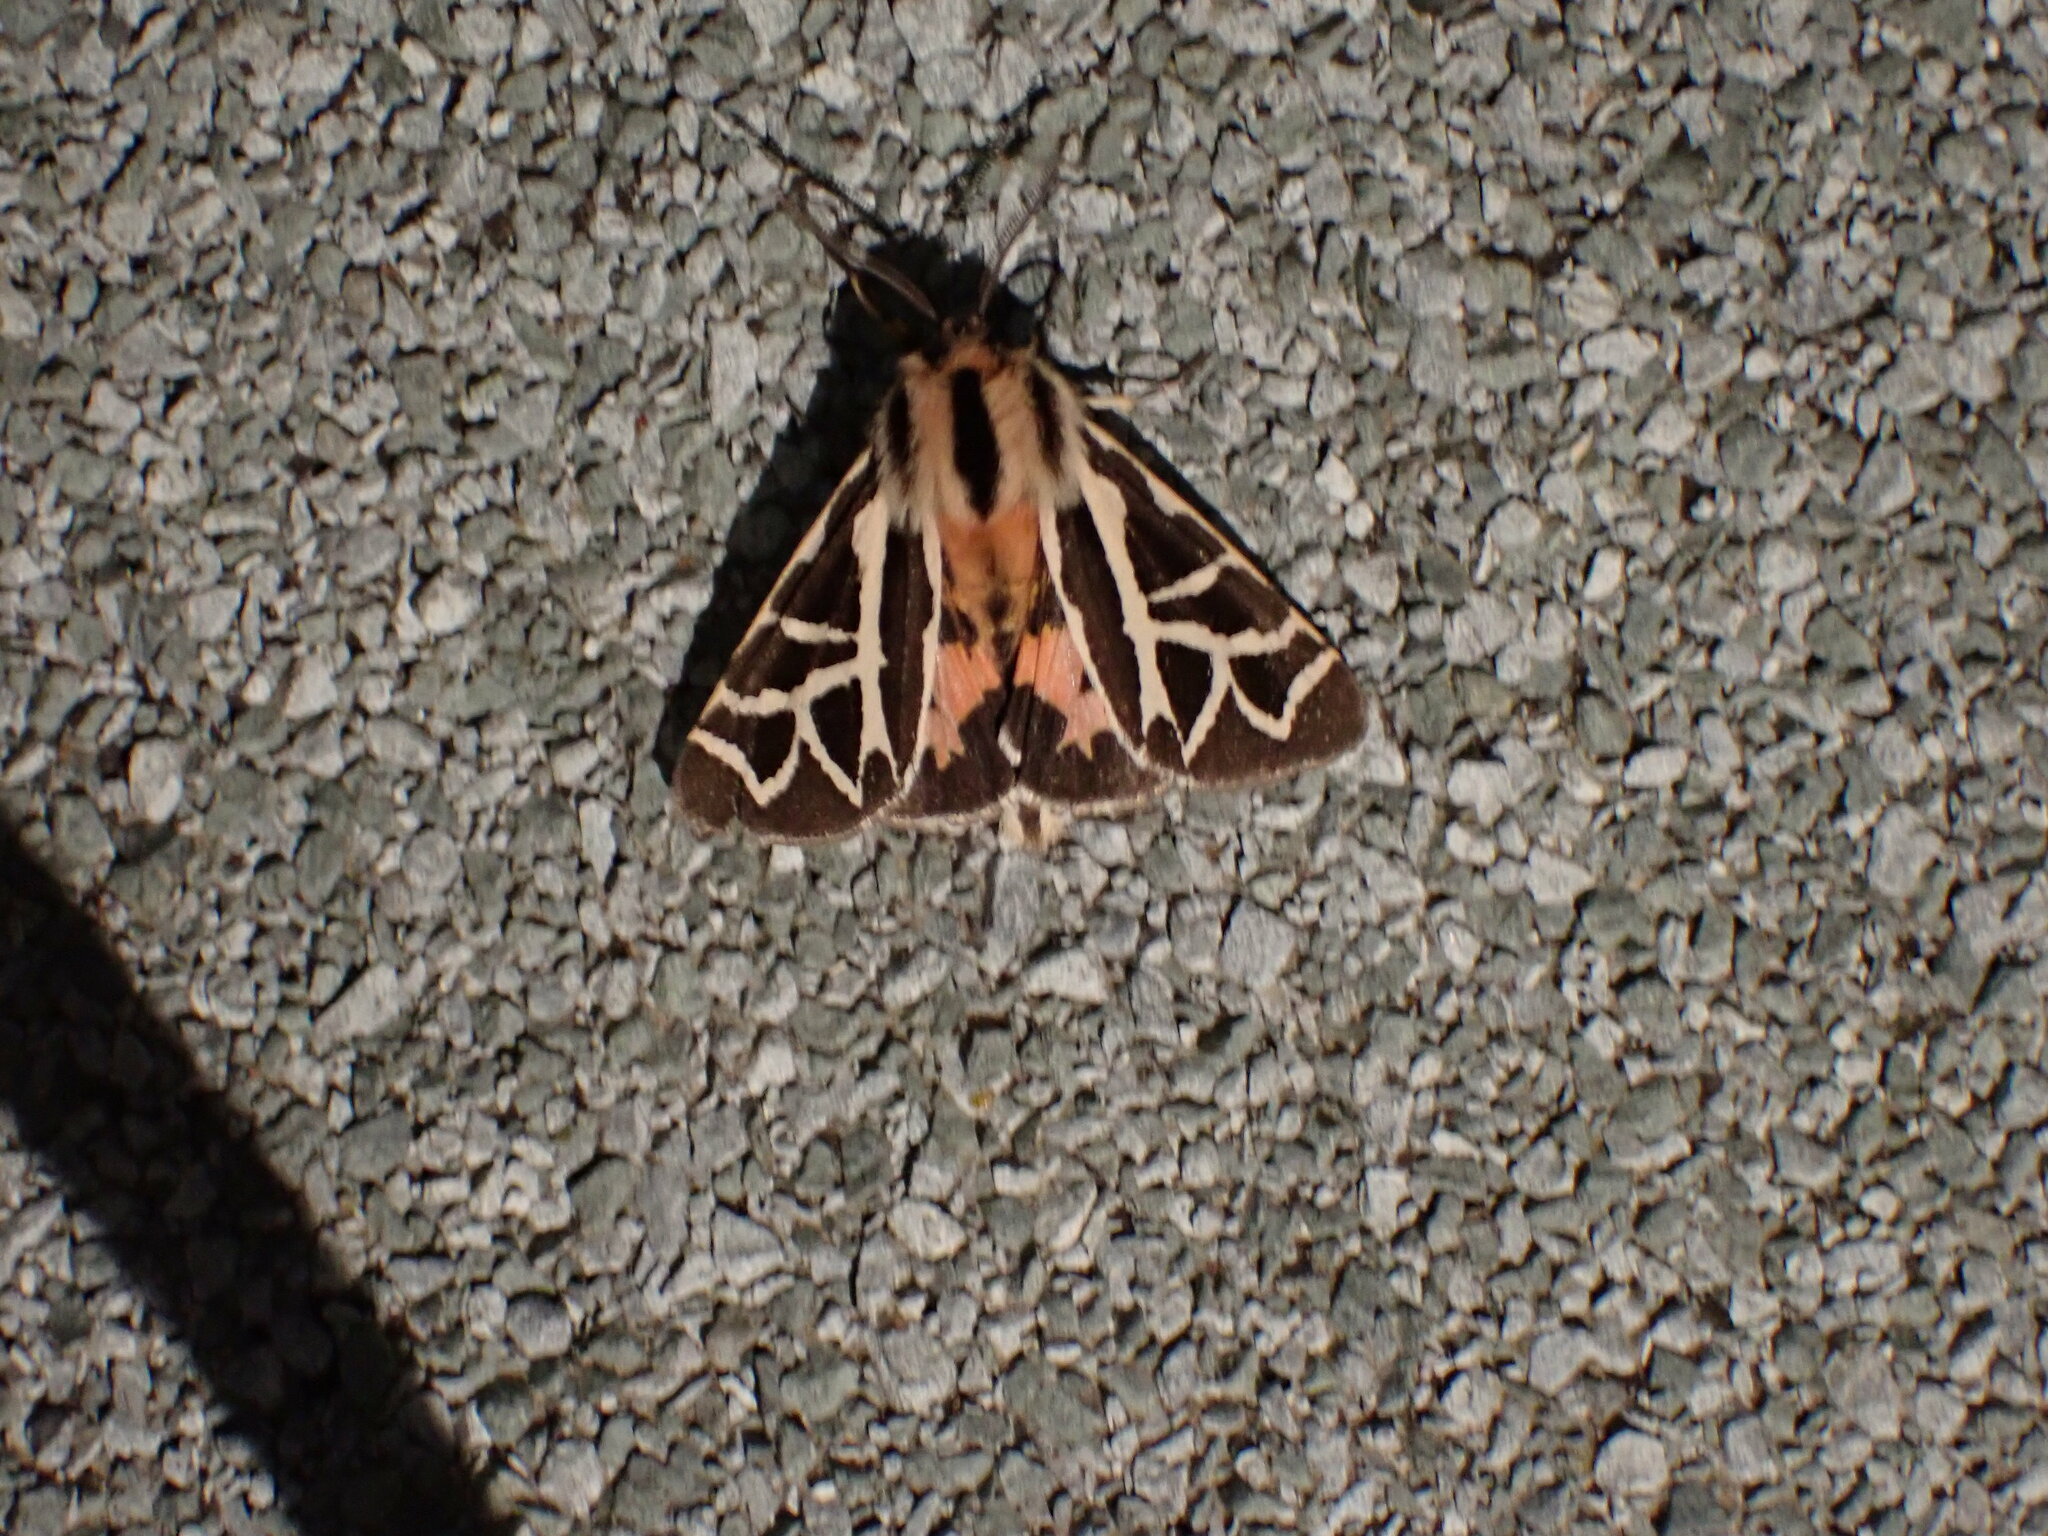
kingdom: Animalia
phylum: Arthropoda
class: Insecta
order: Lepidoptera
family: Erebidae
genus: Apantesis
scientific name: Apantesis
